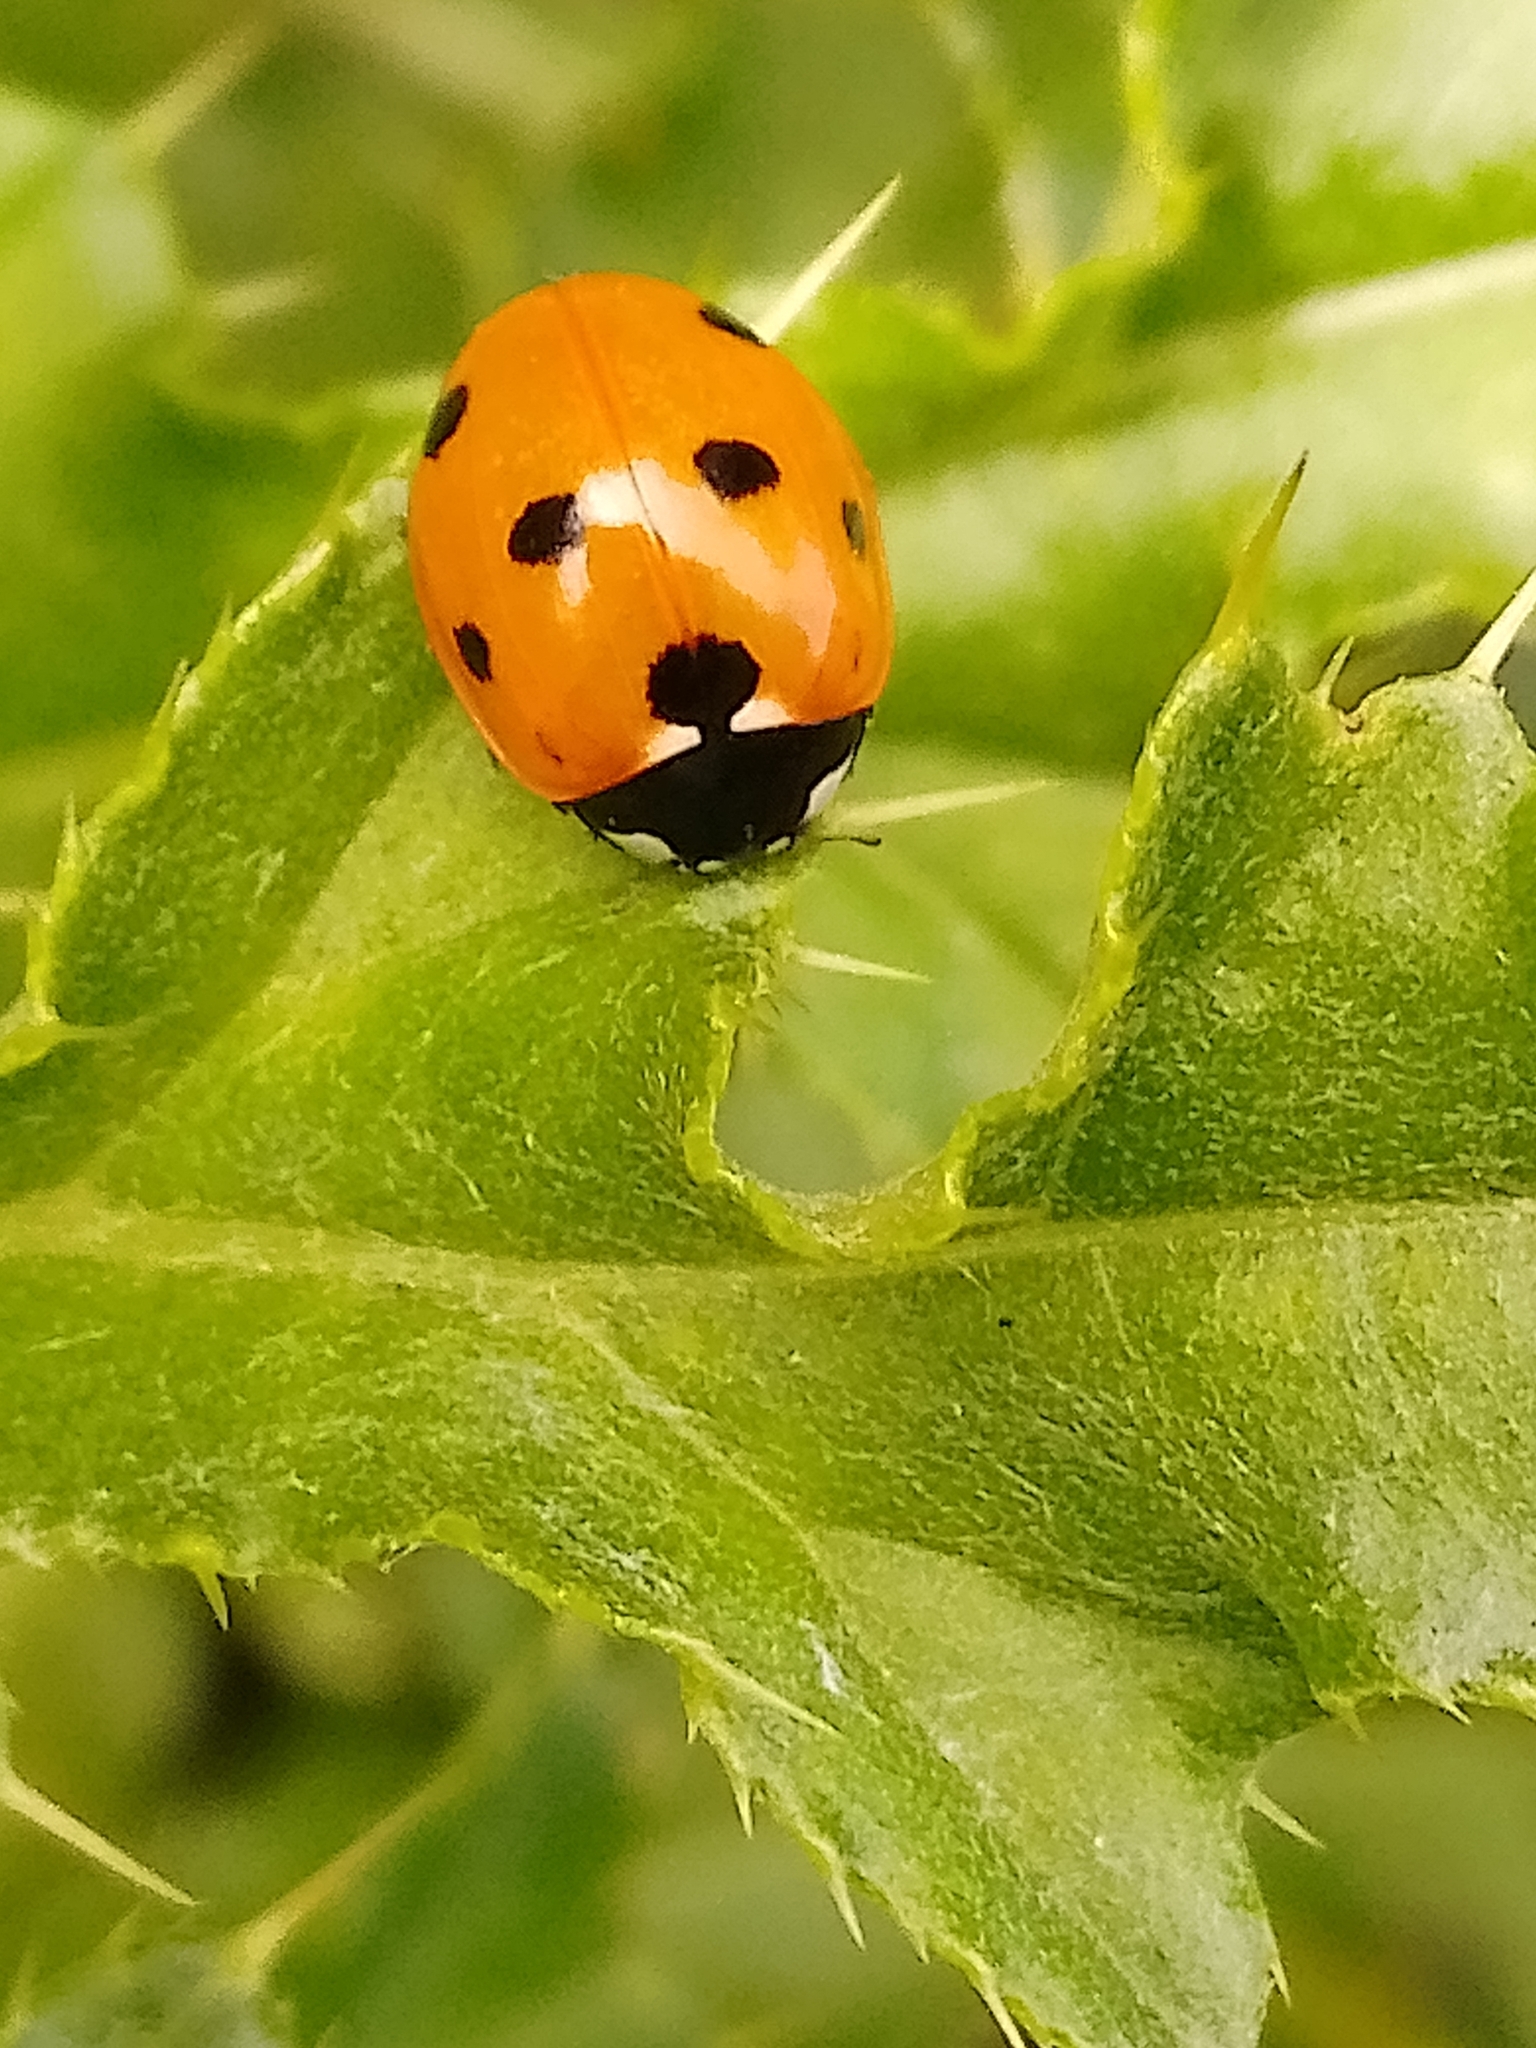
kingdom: Animalia
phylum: Arthropoda
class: Insecta
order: Coleoptera
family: Coccinellidae
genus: Coccinella
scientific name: Coccinella septempunctata
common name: Sevenspotted lady beetle
